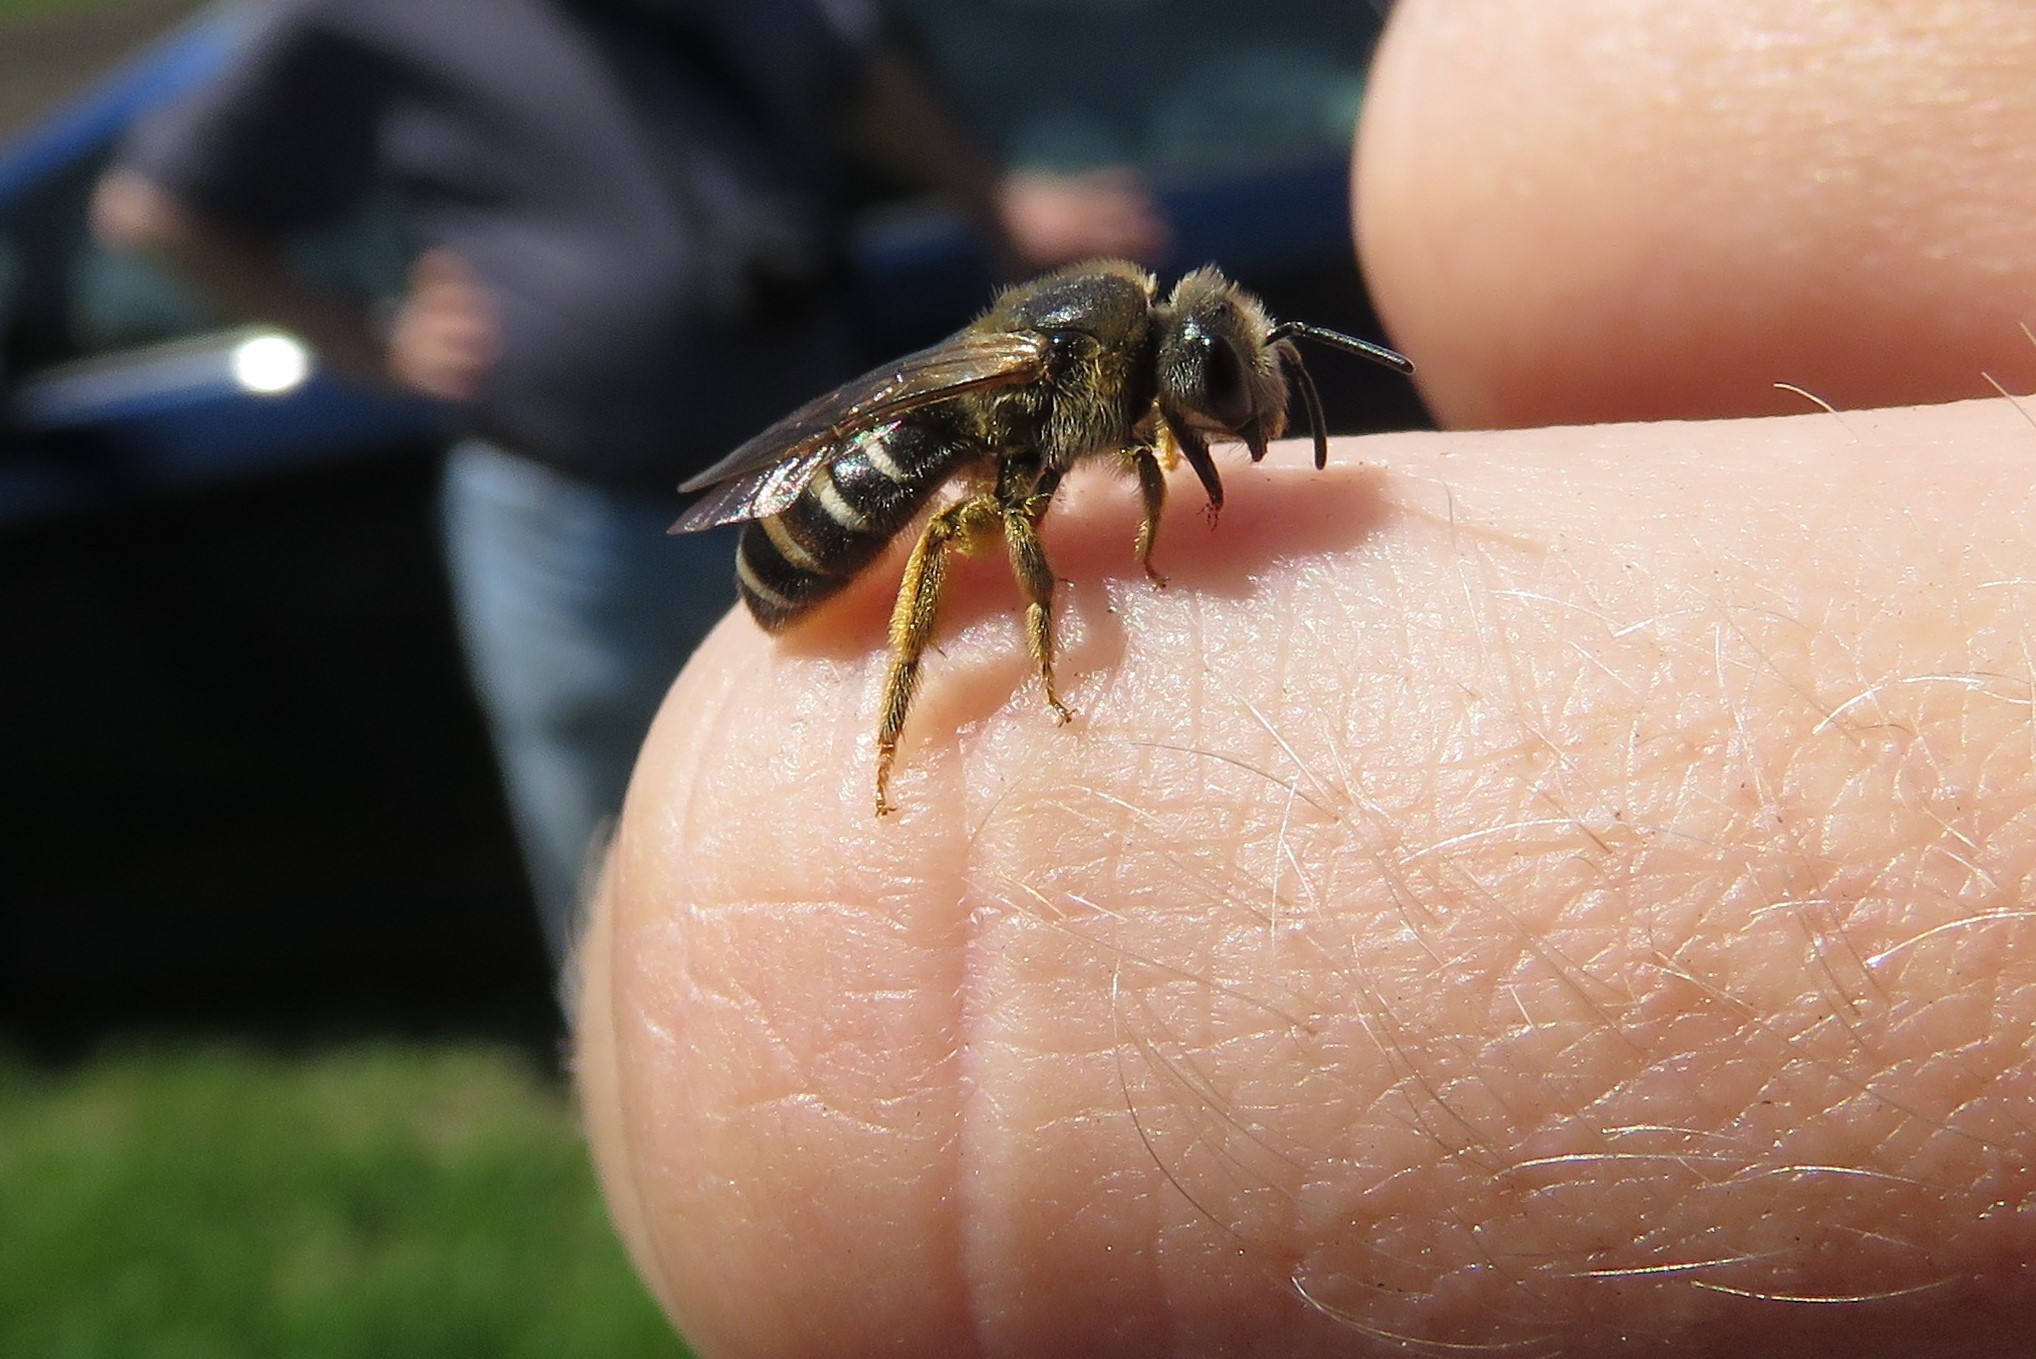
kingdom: Animalia
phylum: Arthropoda
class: Insecta
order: Hymenoptera
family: Halictidae
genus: Halictus
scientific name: Halictus rubicundus
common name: Orange-legged furrow bee
